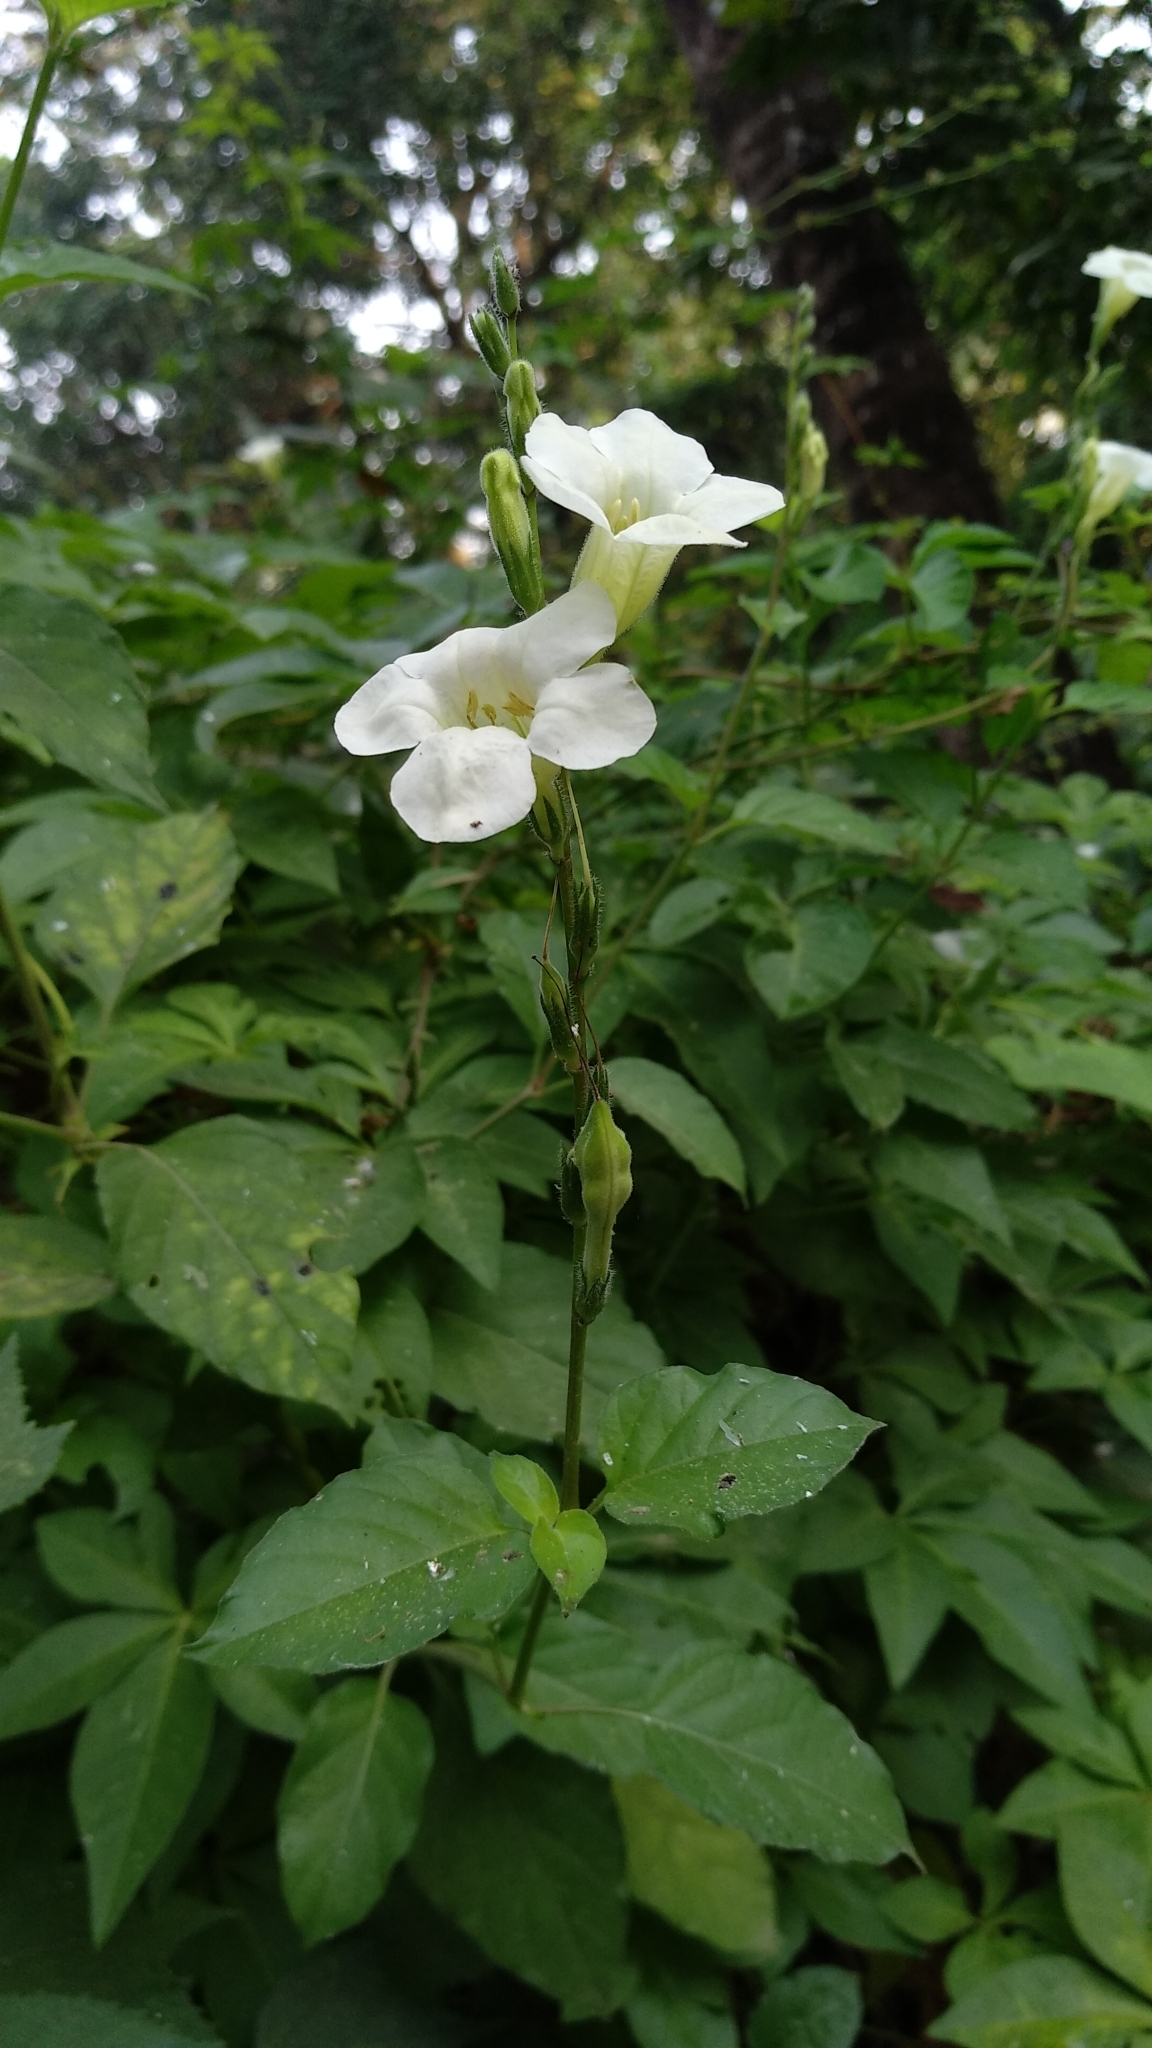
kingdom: Plantae
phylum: Tracheophyta
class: Magnoliopsida
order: Lamiales
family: Acanthaceae
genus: Asystasia
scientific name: Asystasia gangetica
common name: Chinese violet
